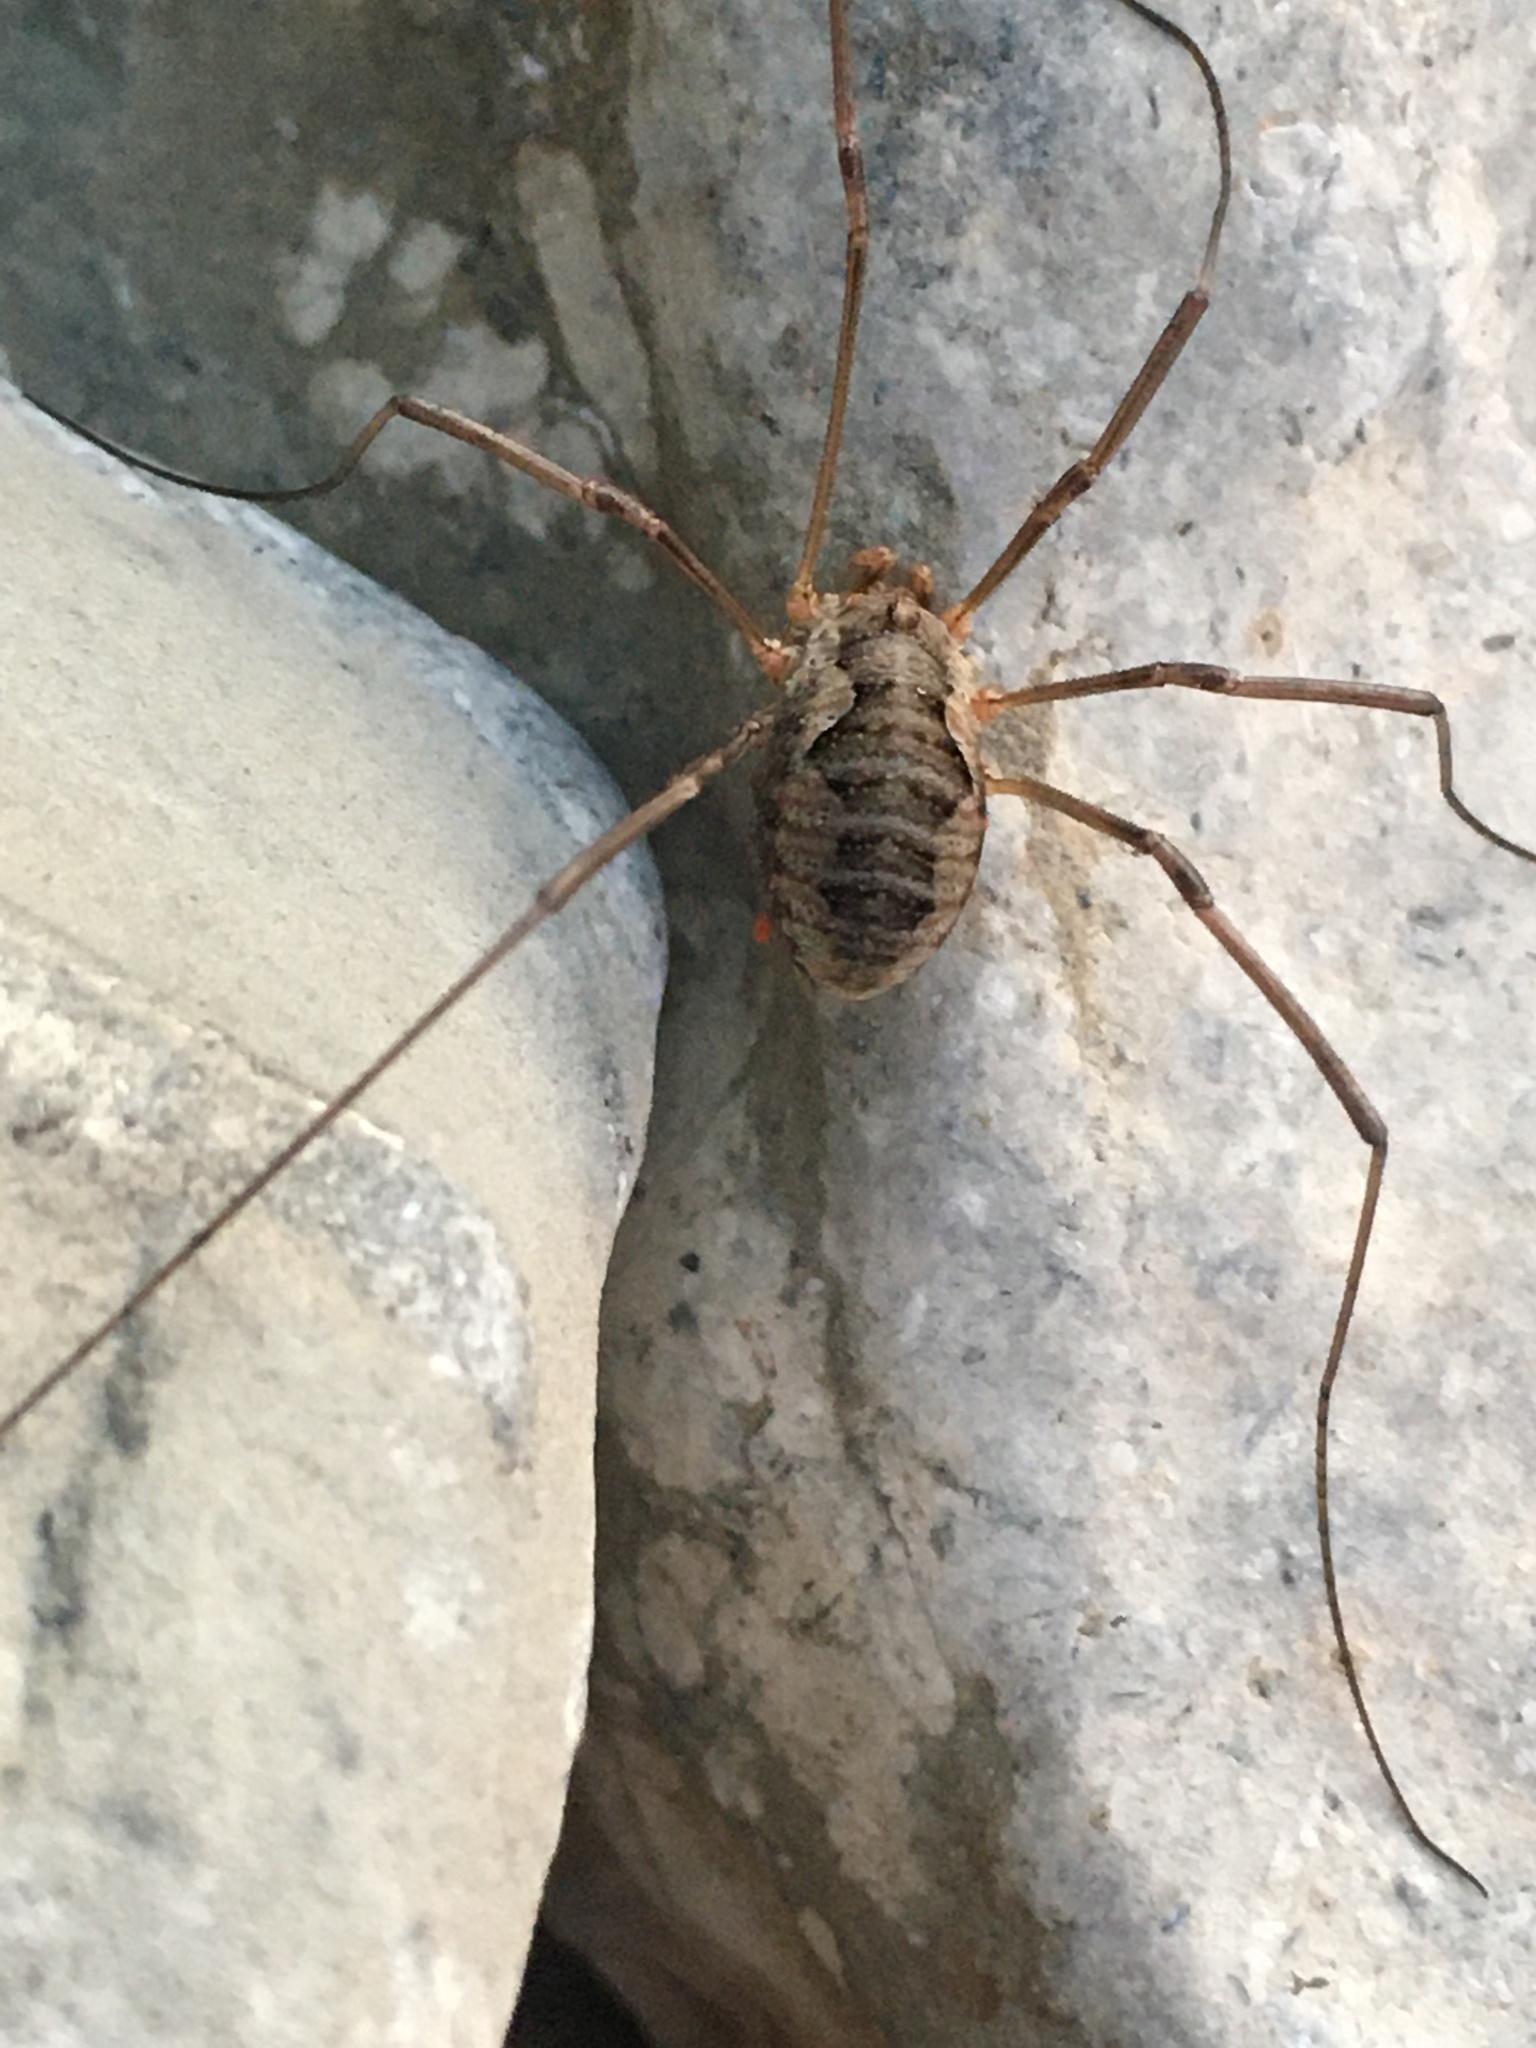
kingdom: Animalia
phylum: Arthropoda
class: Arachnida
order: Opiliones
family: Phalangiidae
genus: Phalangium
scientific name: Phalangium opilio
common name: Daddy longleg
